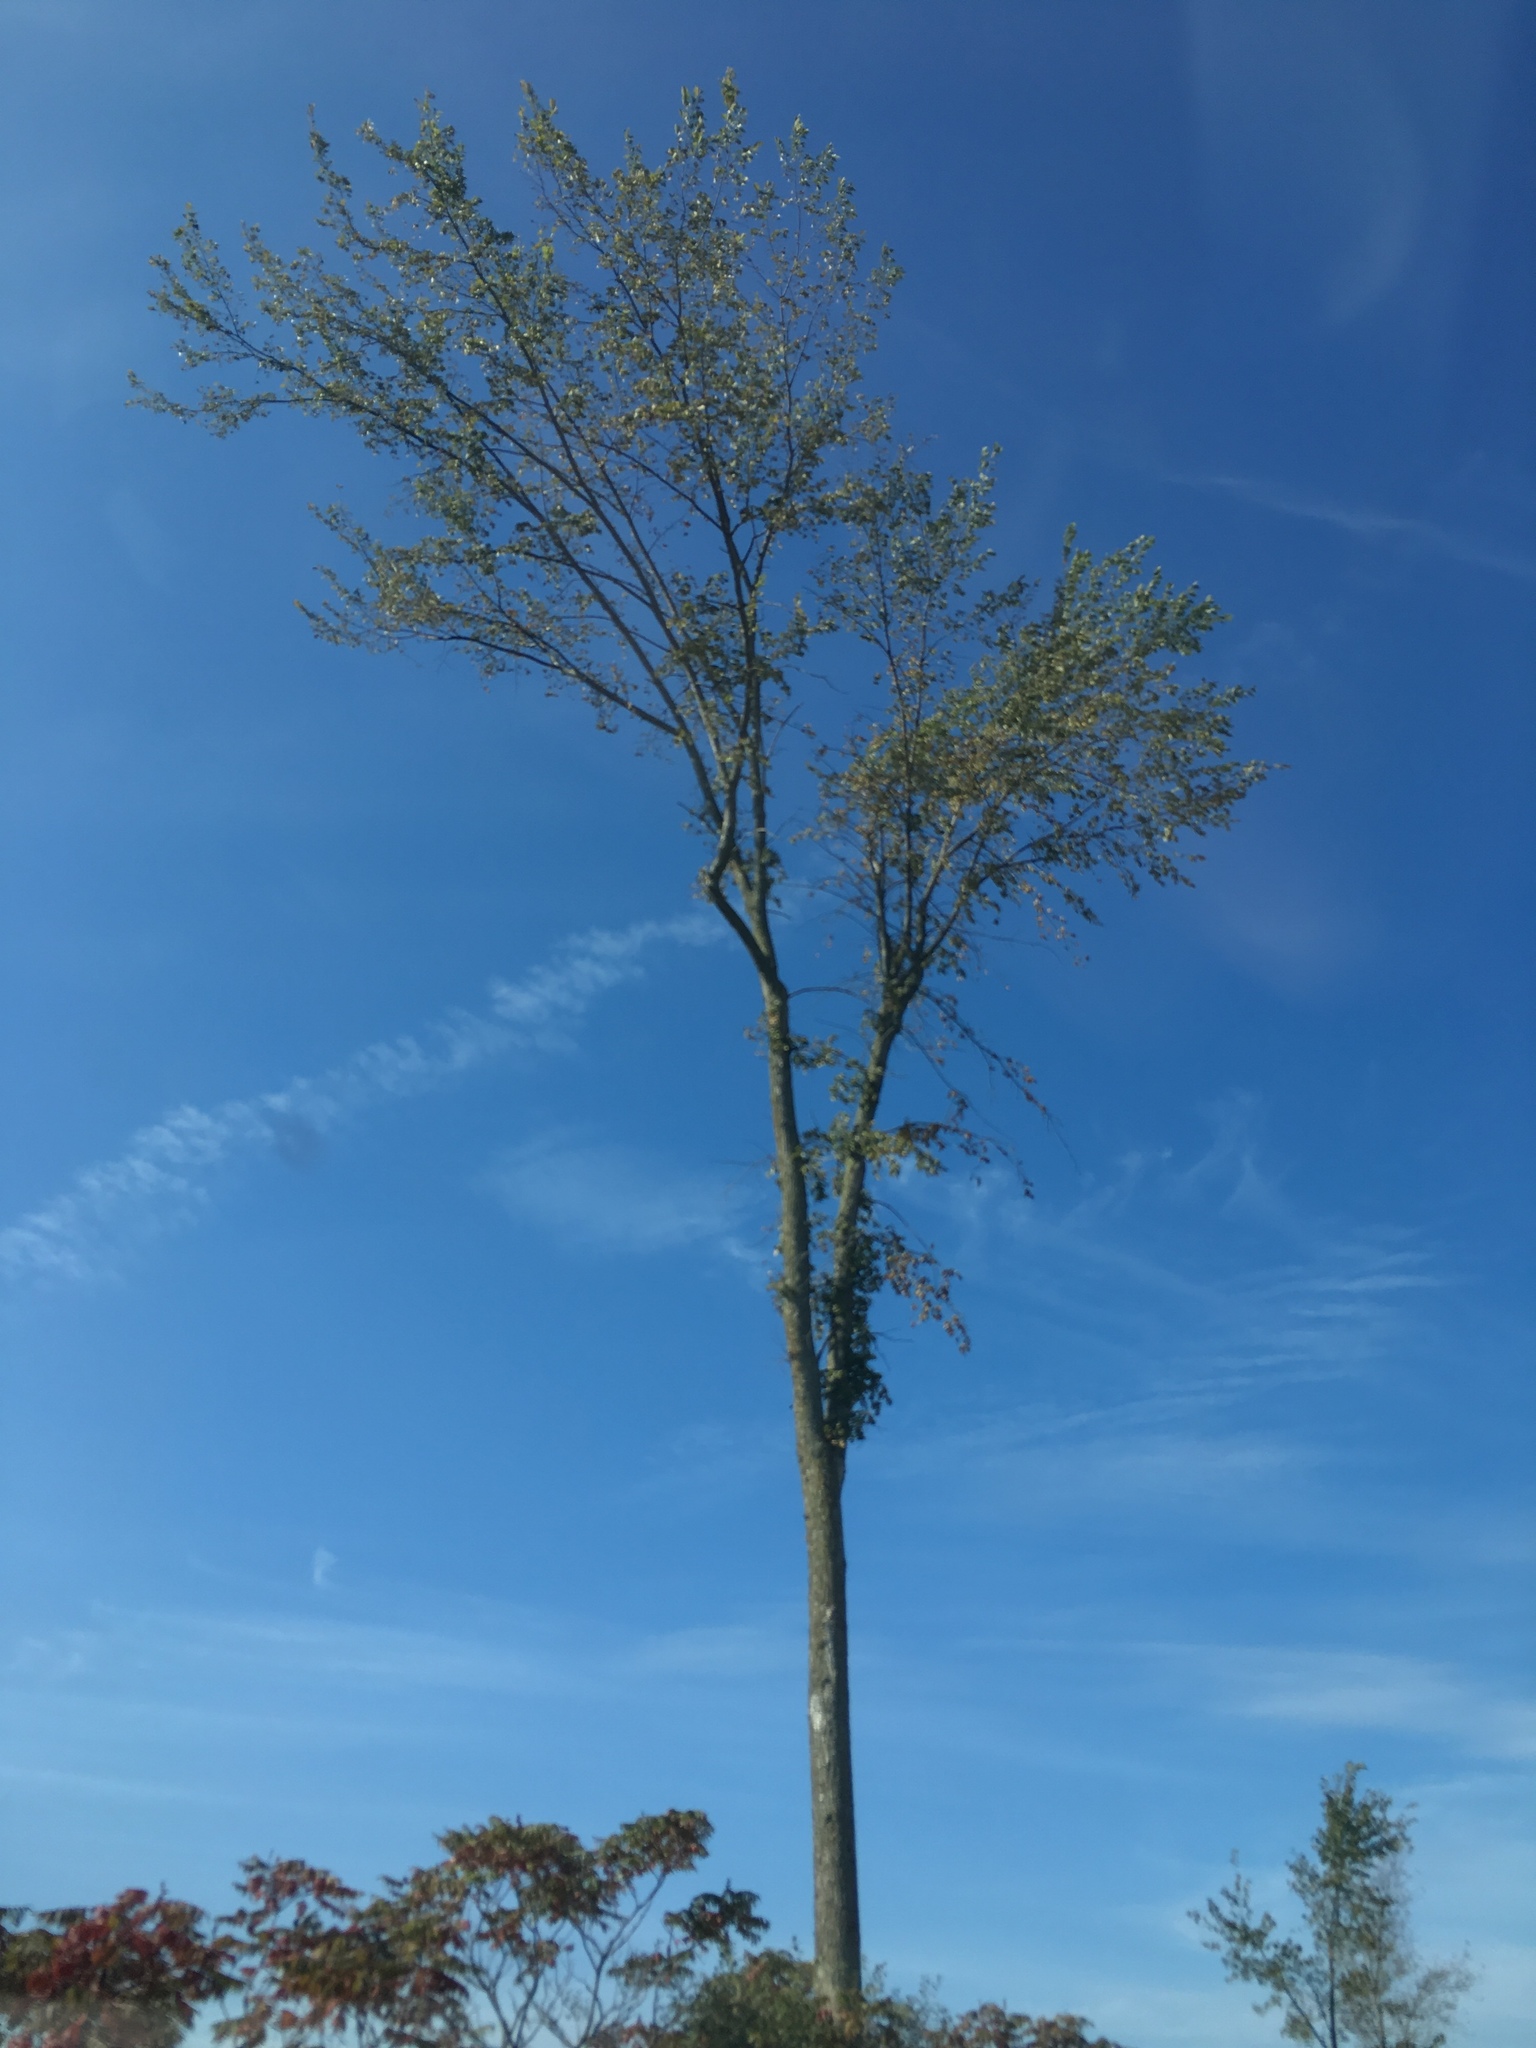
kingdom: Plantae
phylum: Tracheophyta
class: Magnoliopsida
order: Rosales
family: Ulmaceae
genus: Ulmus
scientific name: Ulmus americana
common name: American elm
